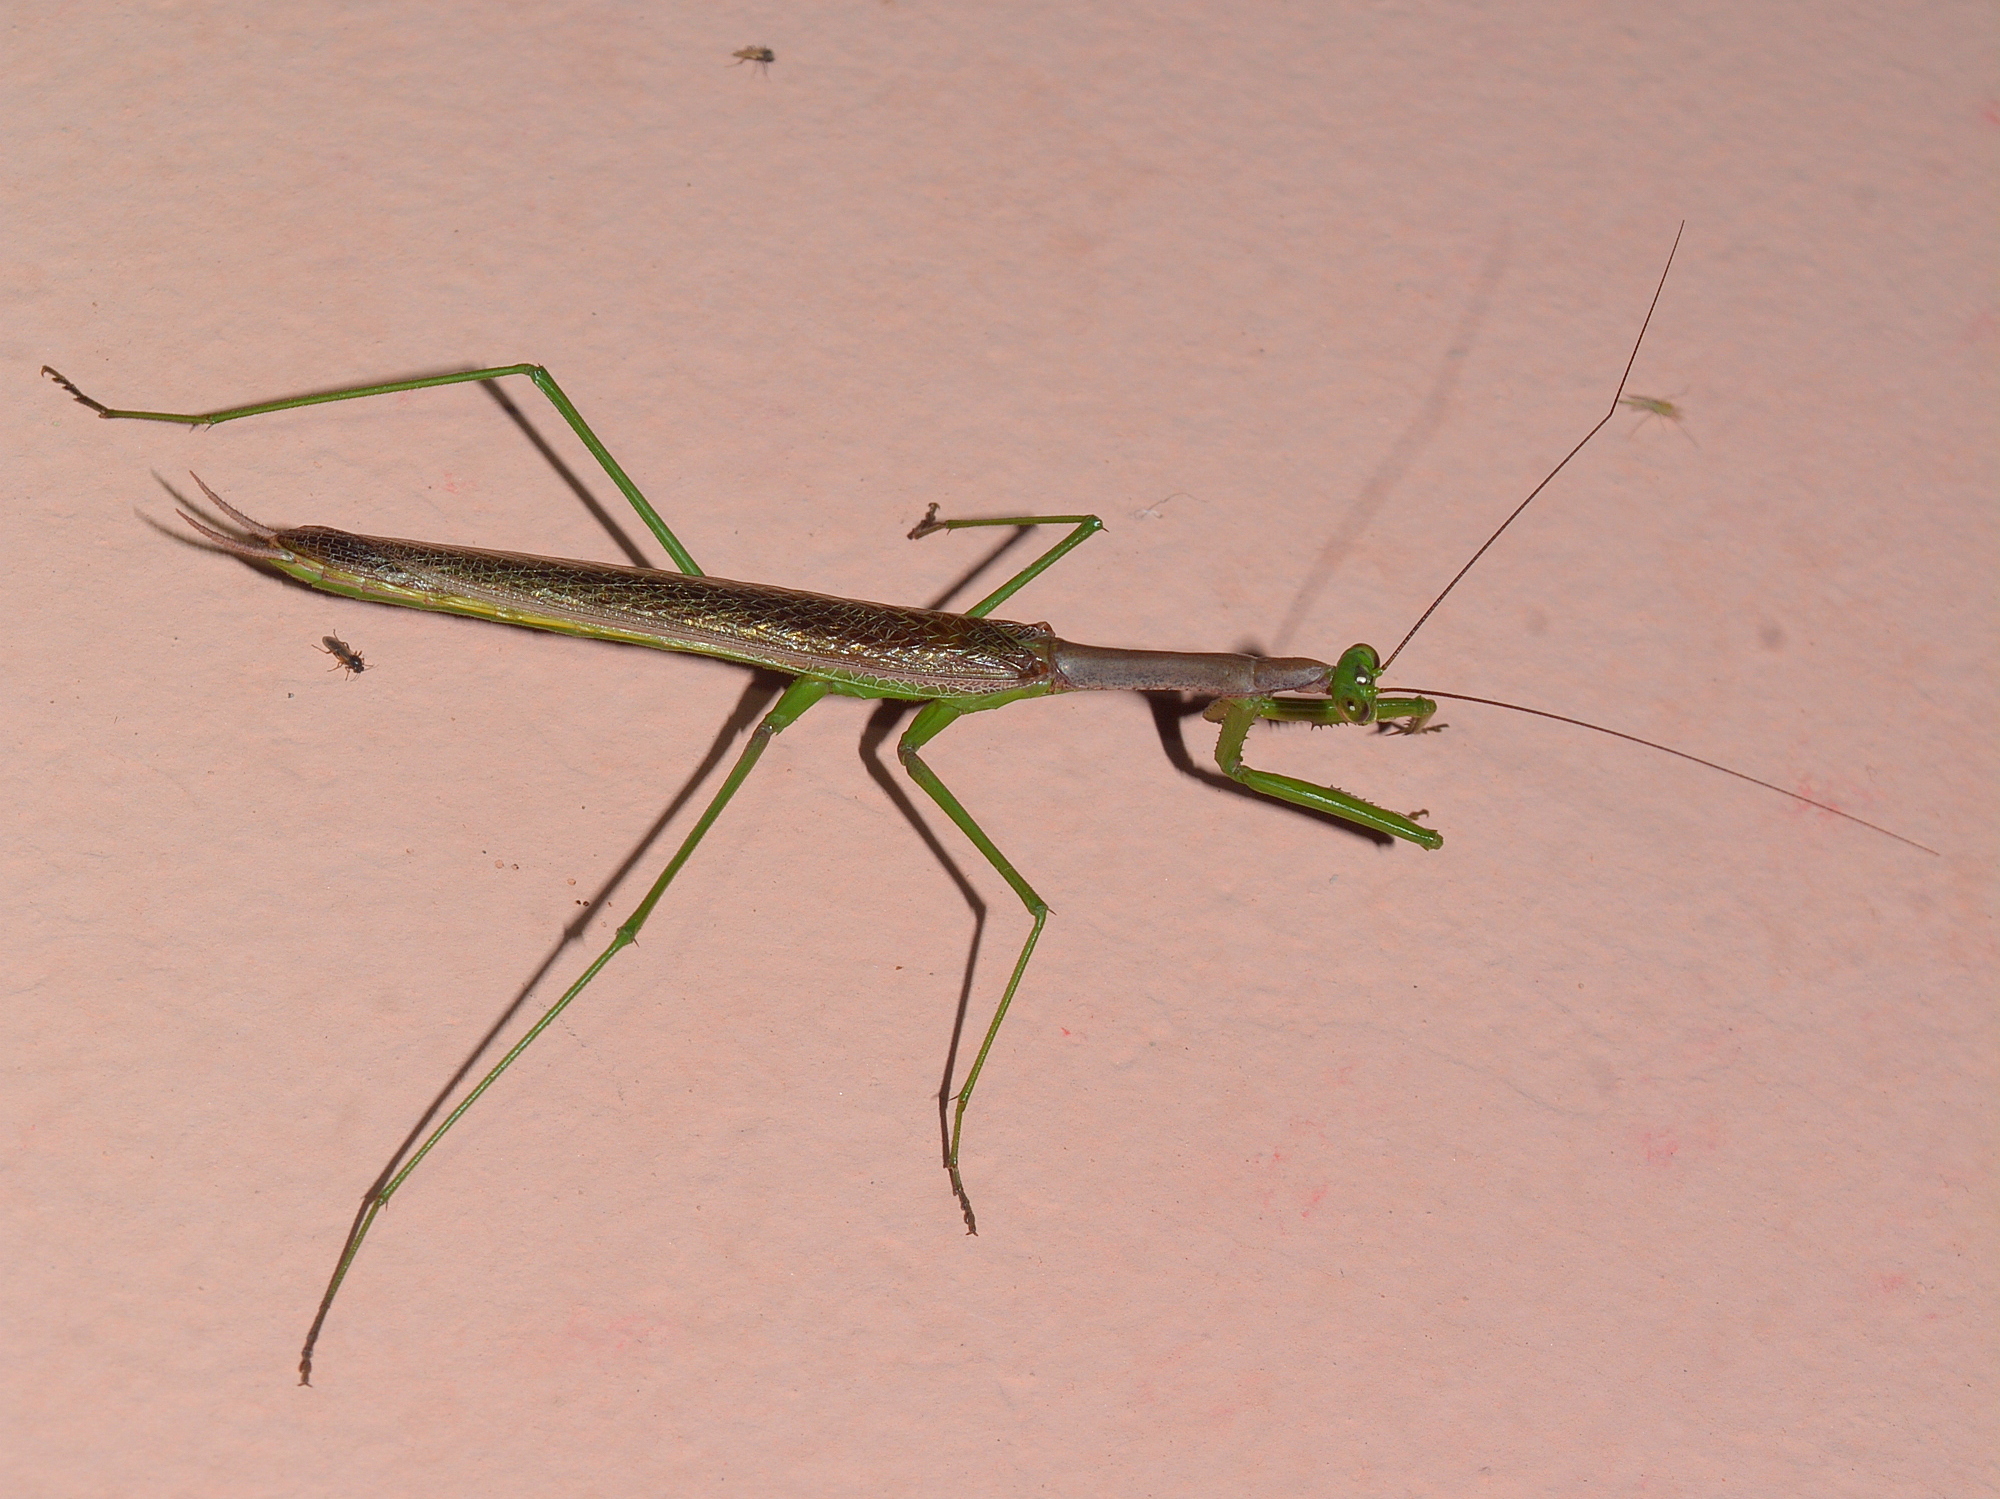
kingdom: Animalia
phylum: Arthropoda
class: Insecta
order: Mantodea
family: Coptopterygidae
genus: Coptopteryx
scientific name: Coptopteryx gayi
